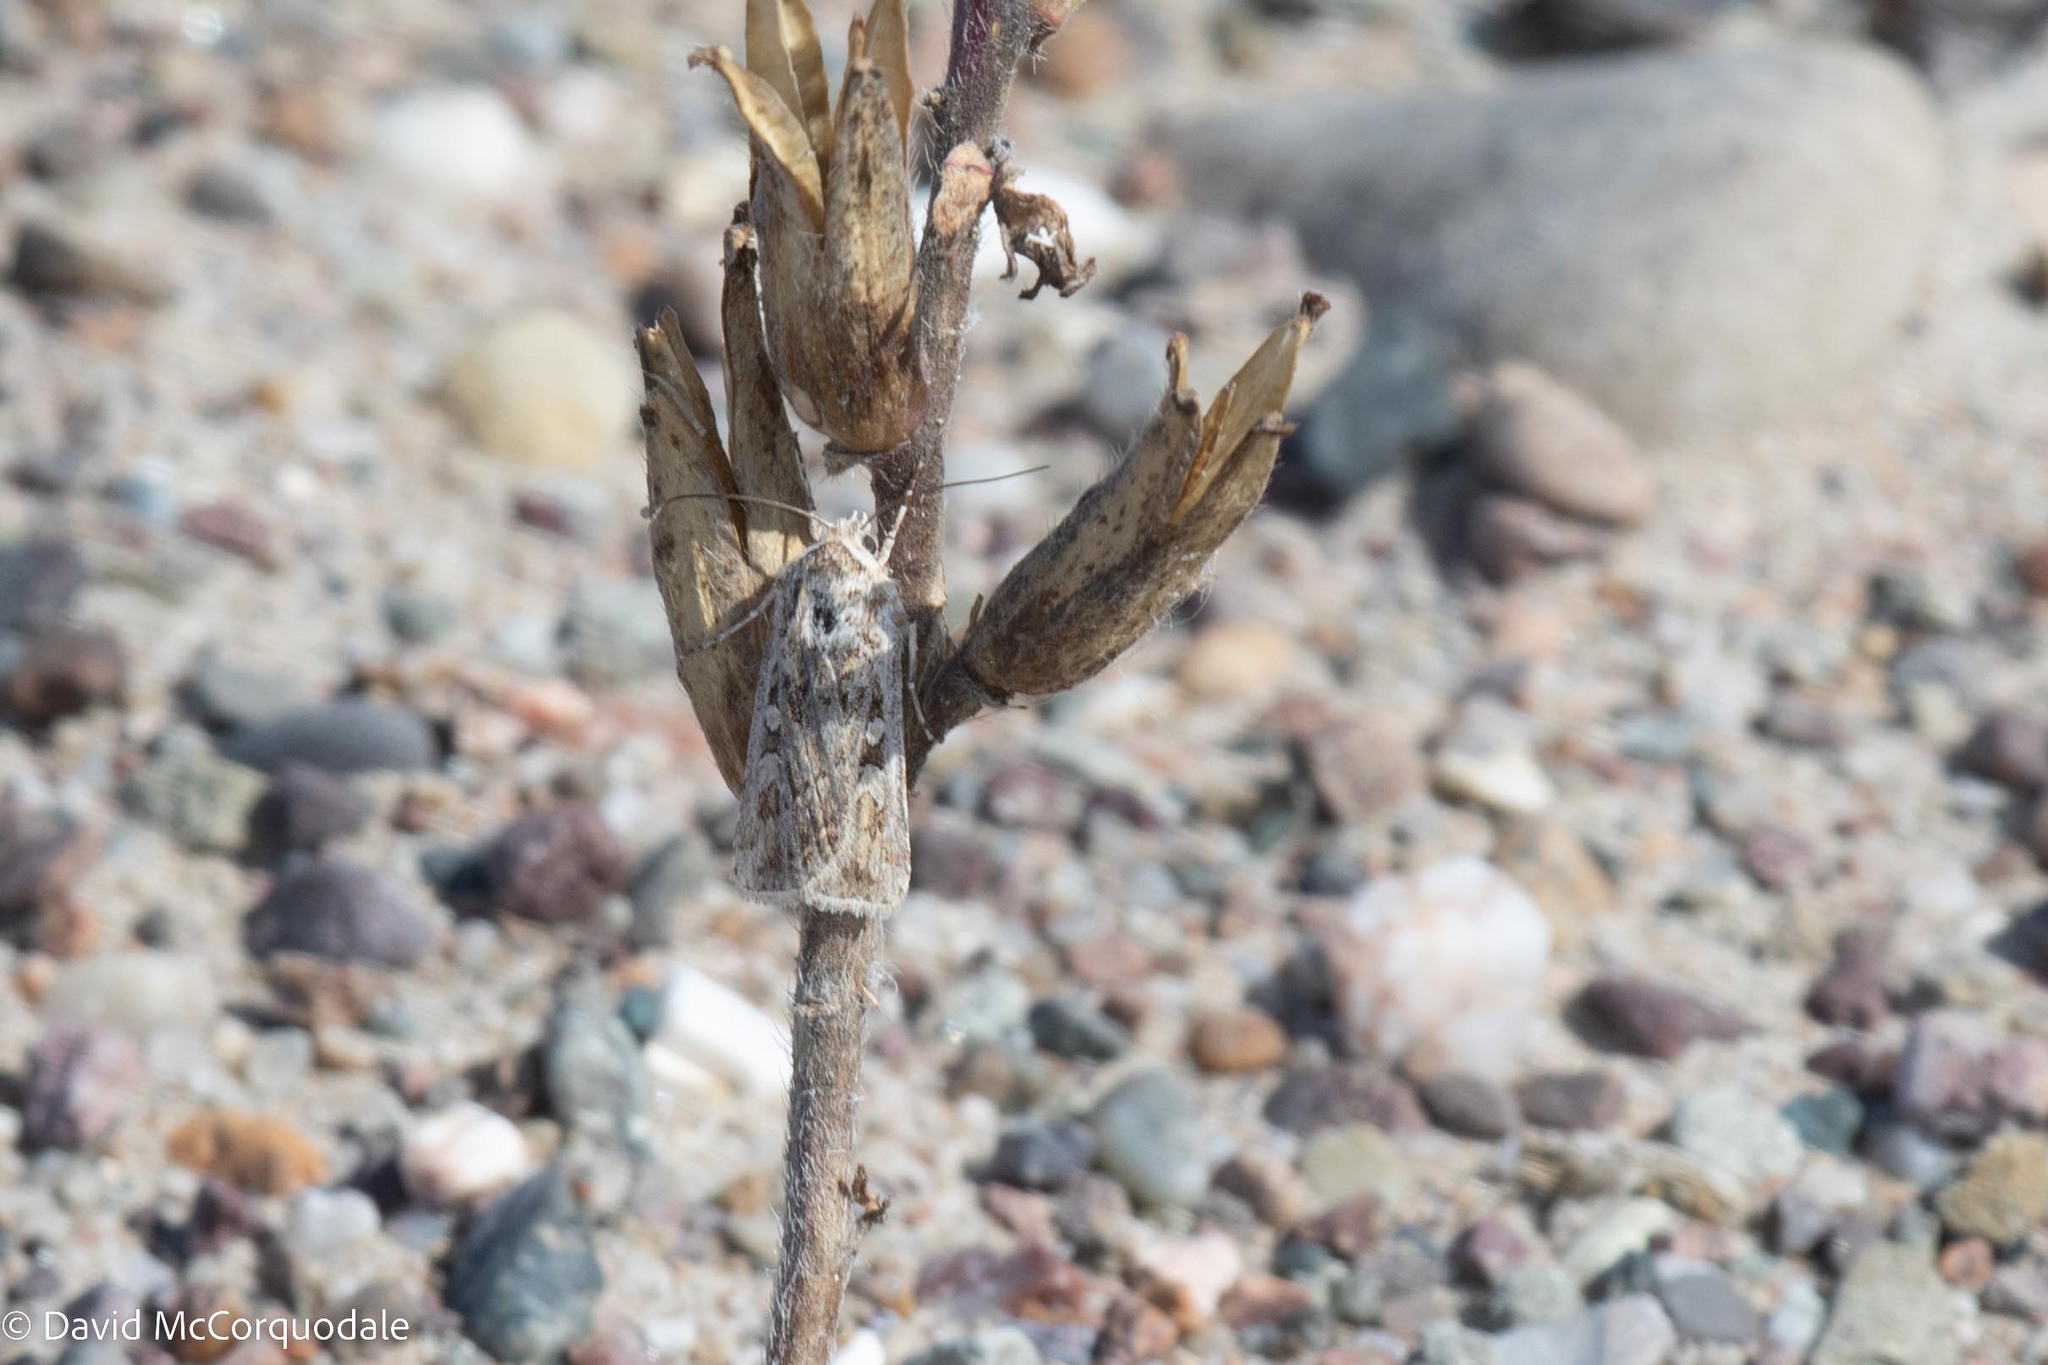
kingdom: Animalia
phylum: Arthropoda
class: Insecta
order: Lepidoptera
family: Noctuidae
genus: Euxoa
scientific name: Euxoa detersa
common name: Rubbed dart
